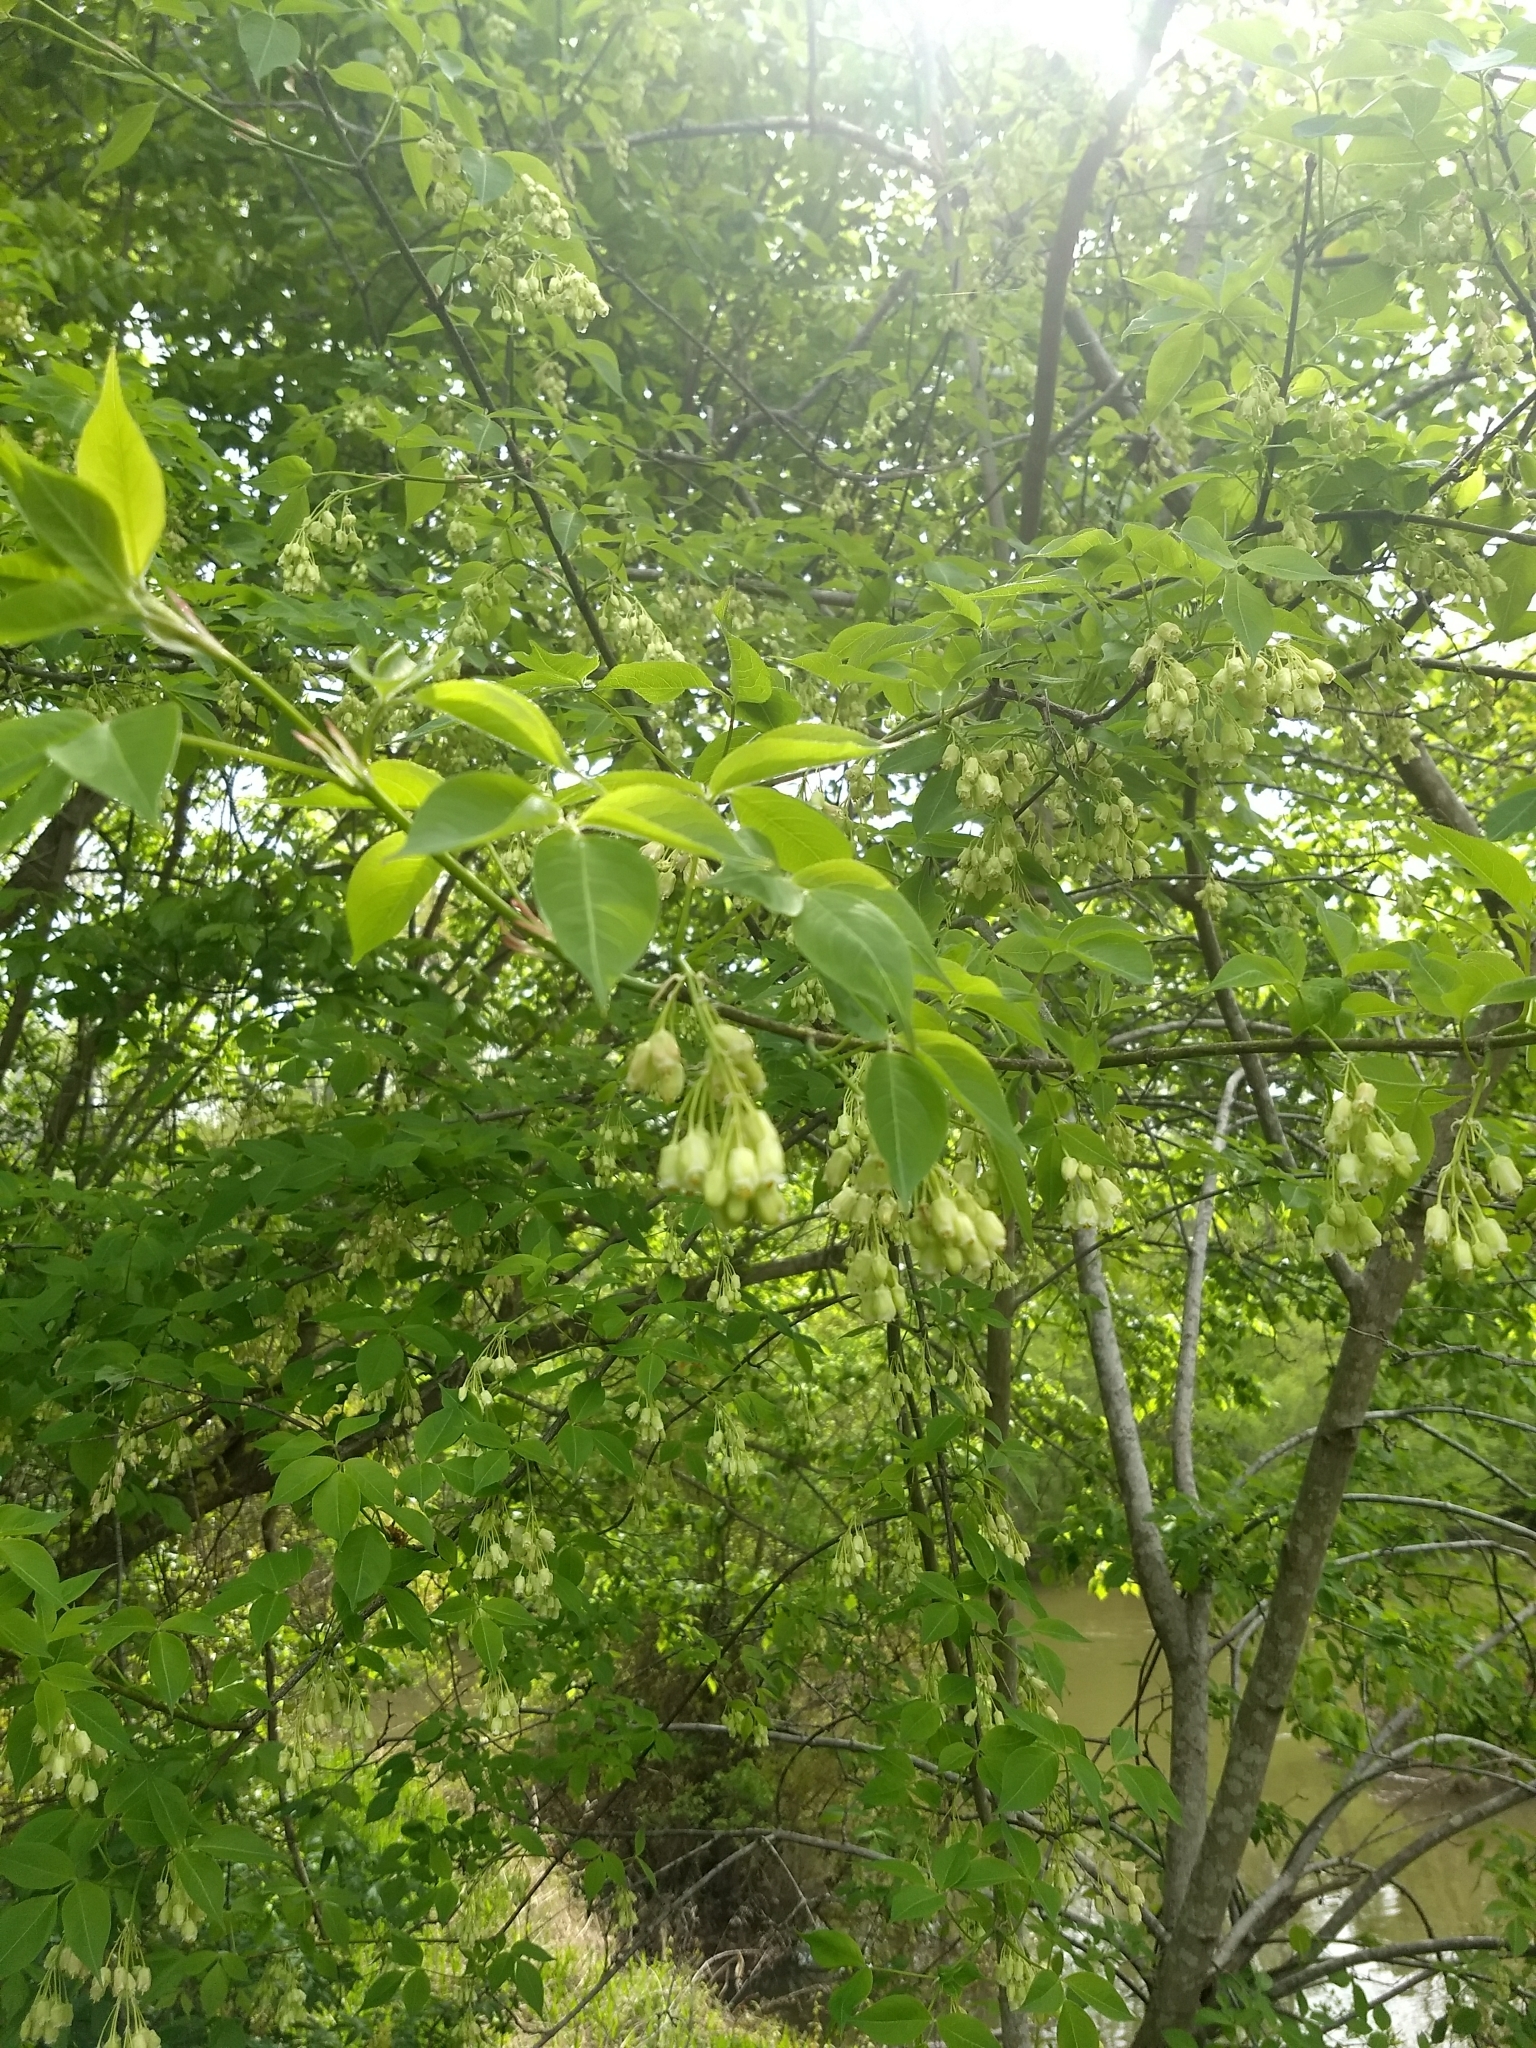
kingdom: Plantae
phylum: Tracheophyta
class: Magnoliopsida
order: Crossosomatales
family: Staphyleaceae
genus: Staphylea
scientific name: Staphylea trifolia
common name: American bladdernut
